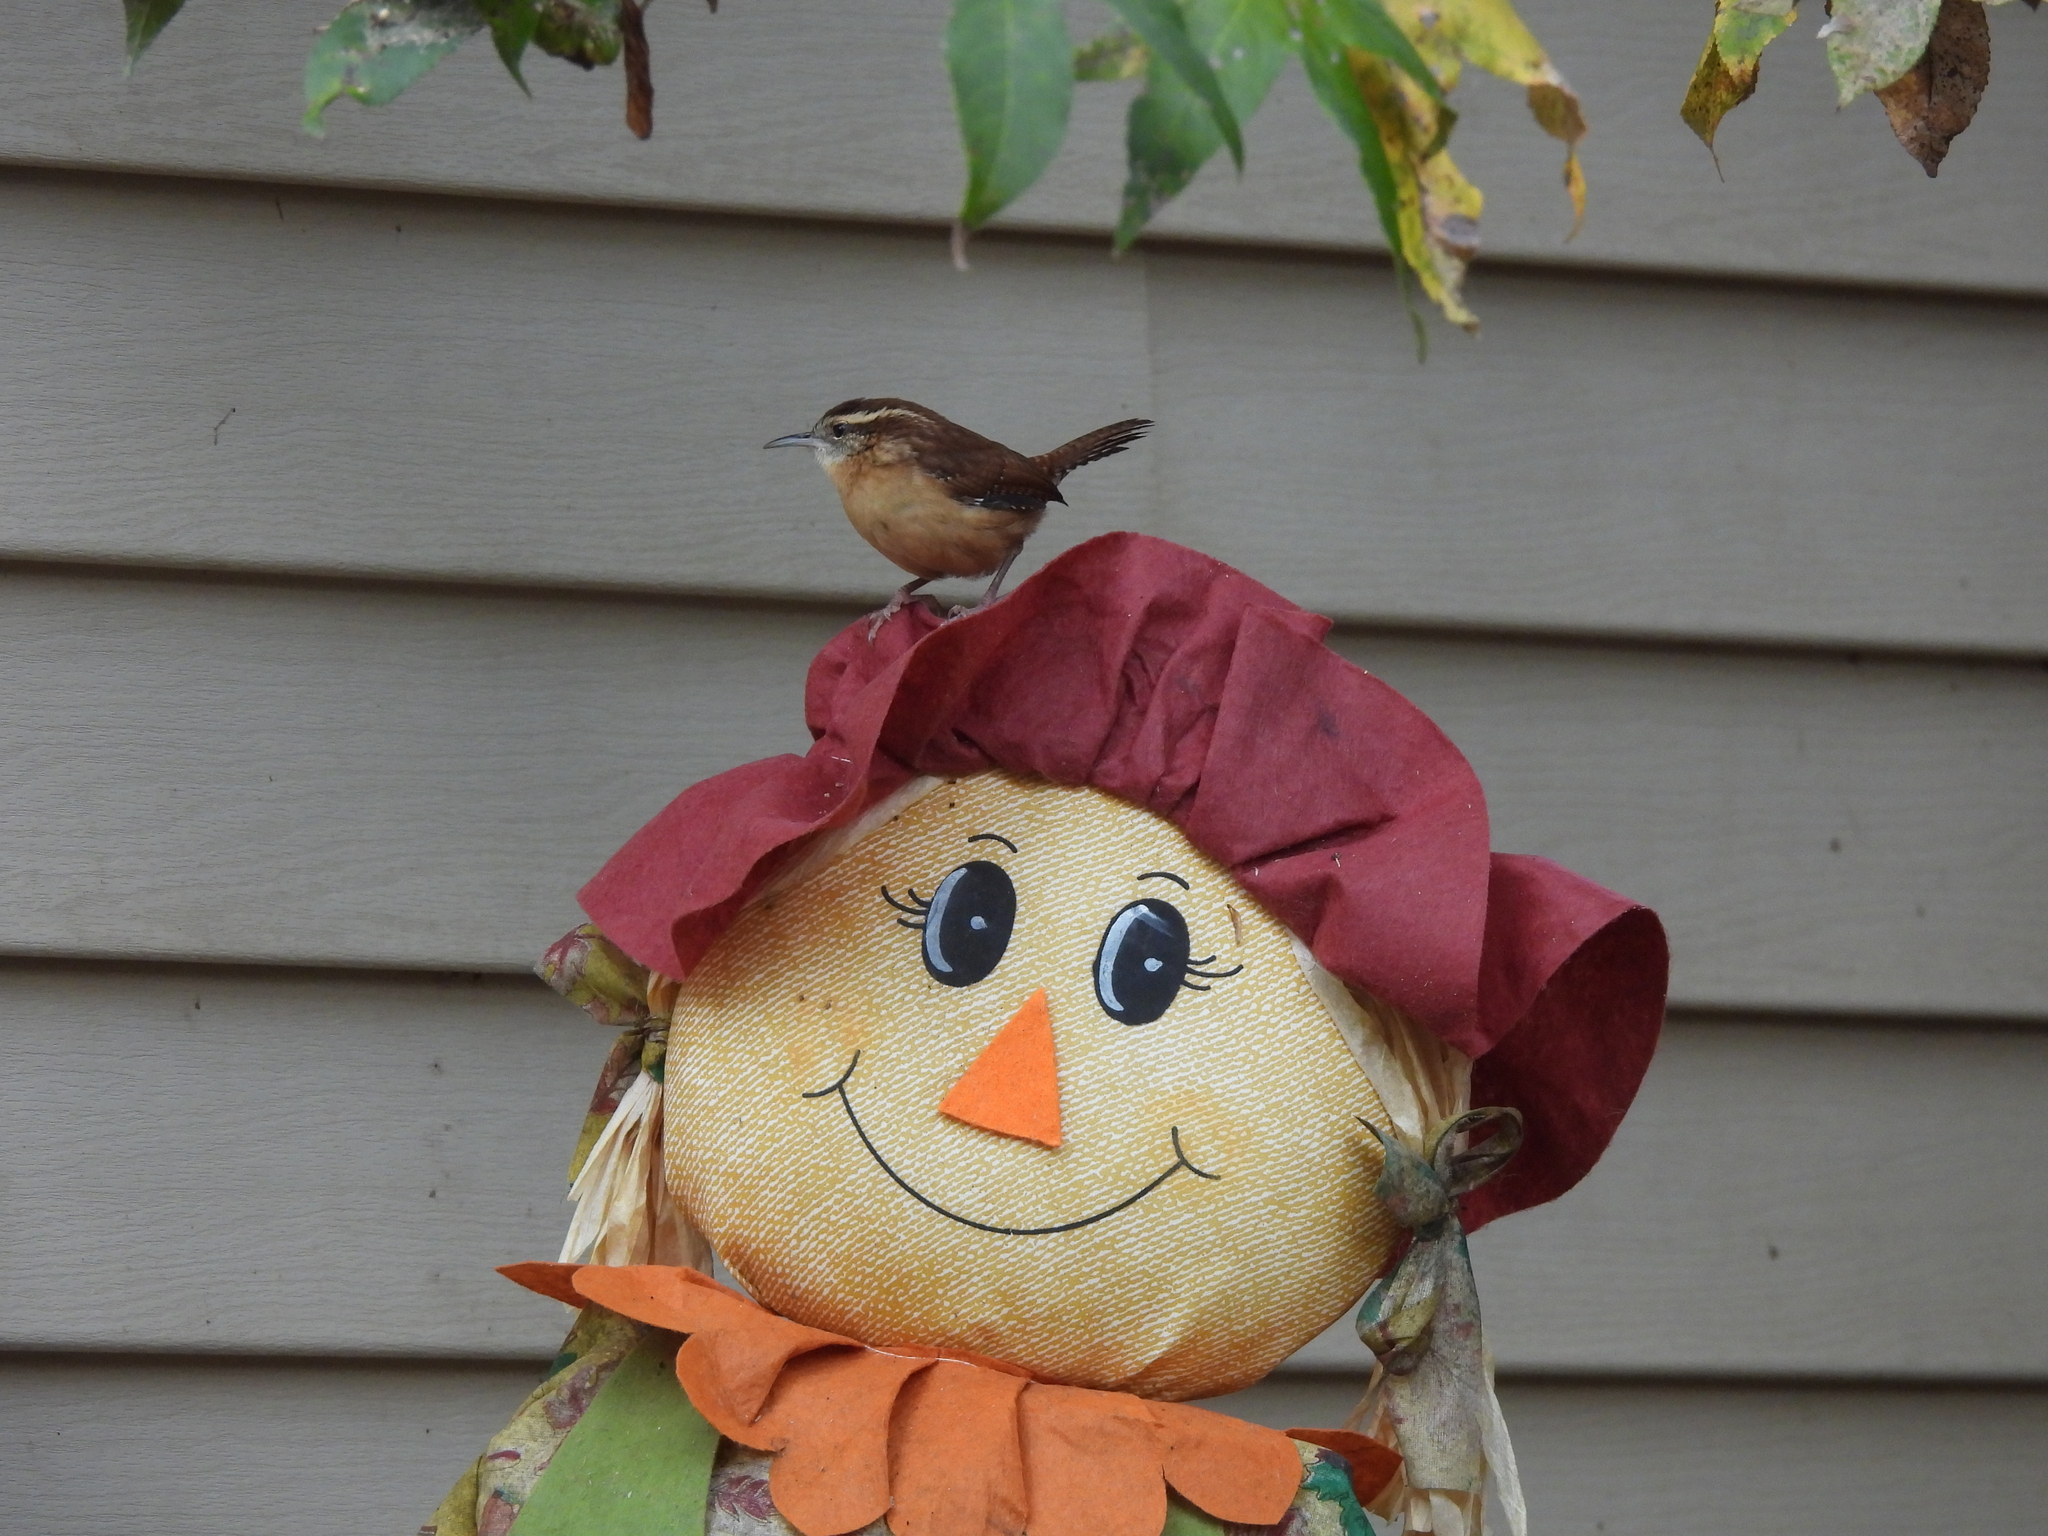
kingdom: Animalia
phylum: Chordata
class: Aves
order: Passeriformes
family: Troglodytidae
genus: Thryothorus
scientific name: Thryothorus ludovicianus
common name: Carolina wren
